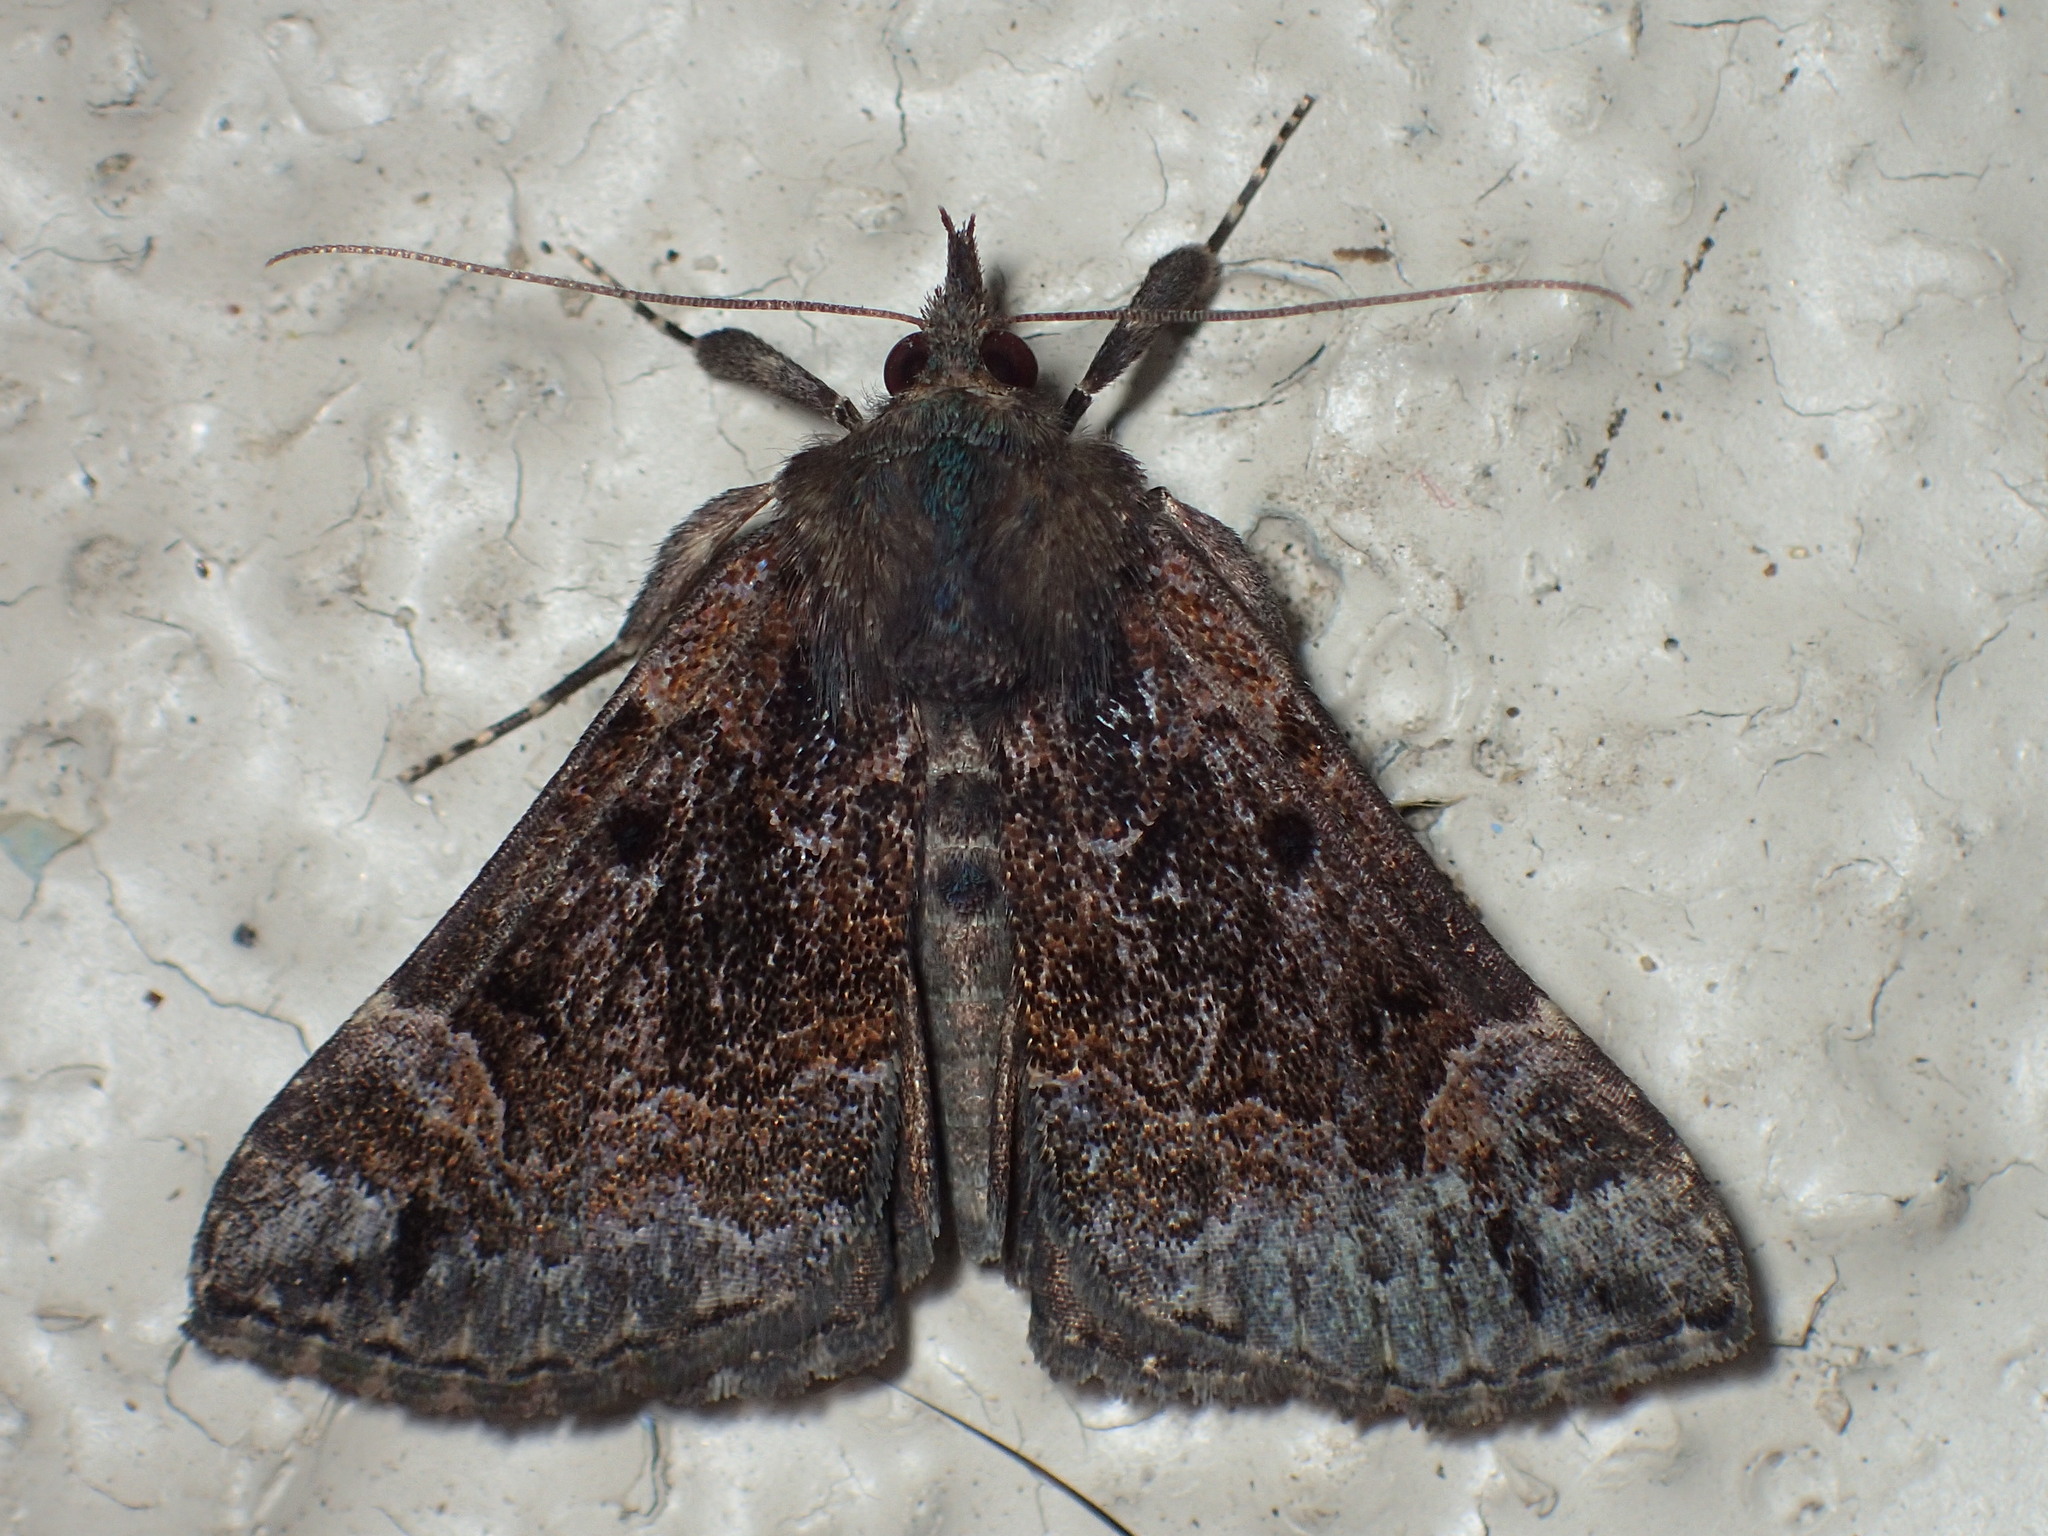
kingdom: Animalia
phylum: Arthropoda
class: Insecta
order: Lepidoptera
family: Erebidae
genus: Hypena
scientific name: Hypena palparia
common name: Mottled bomolocha moth
